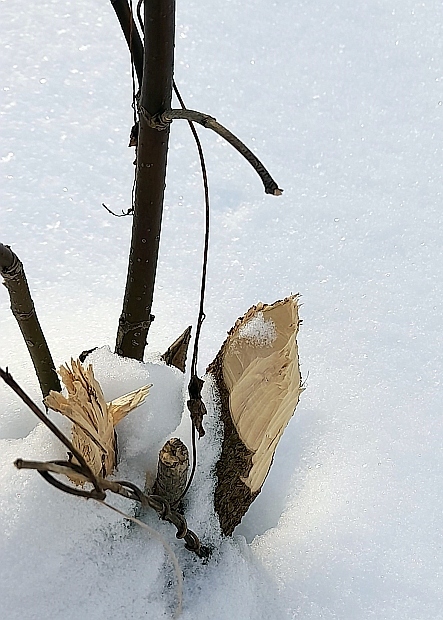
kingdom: Animalia
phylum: Chordata
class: Mammalia
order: Rodentia
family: Castoridae
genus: Castor
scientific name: Castor fiber
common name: Eurasian beaver
